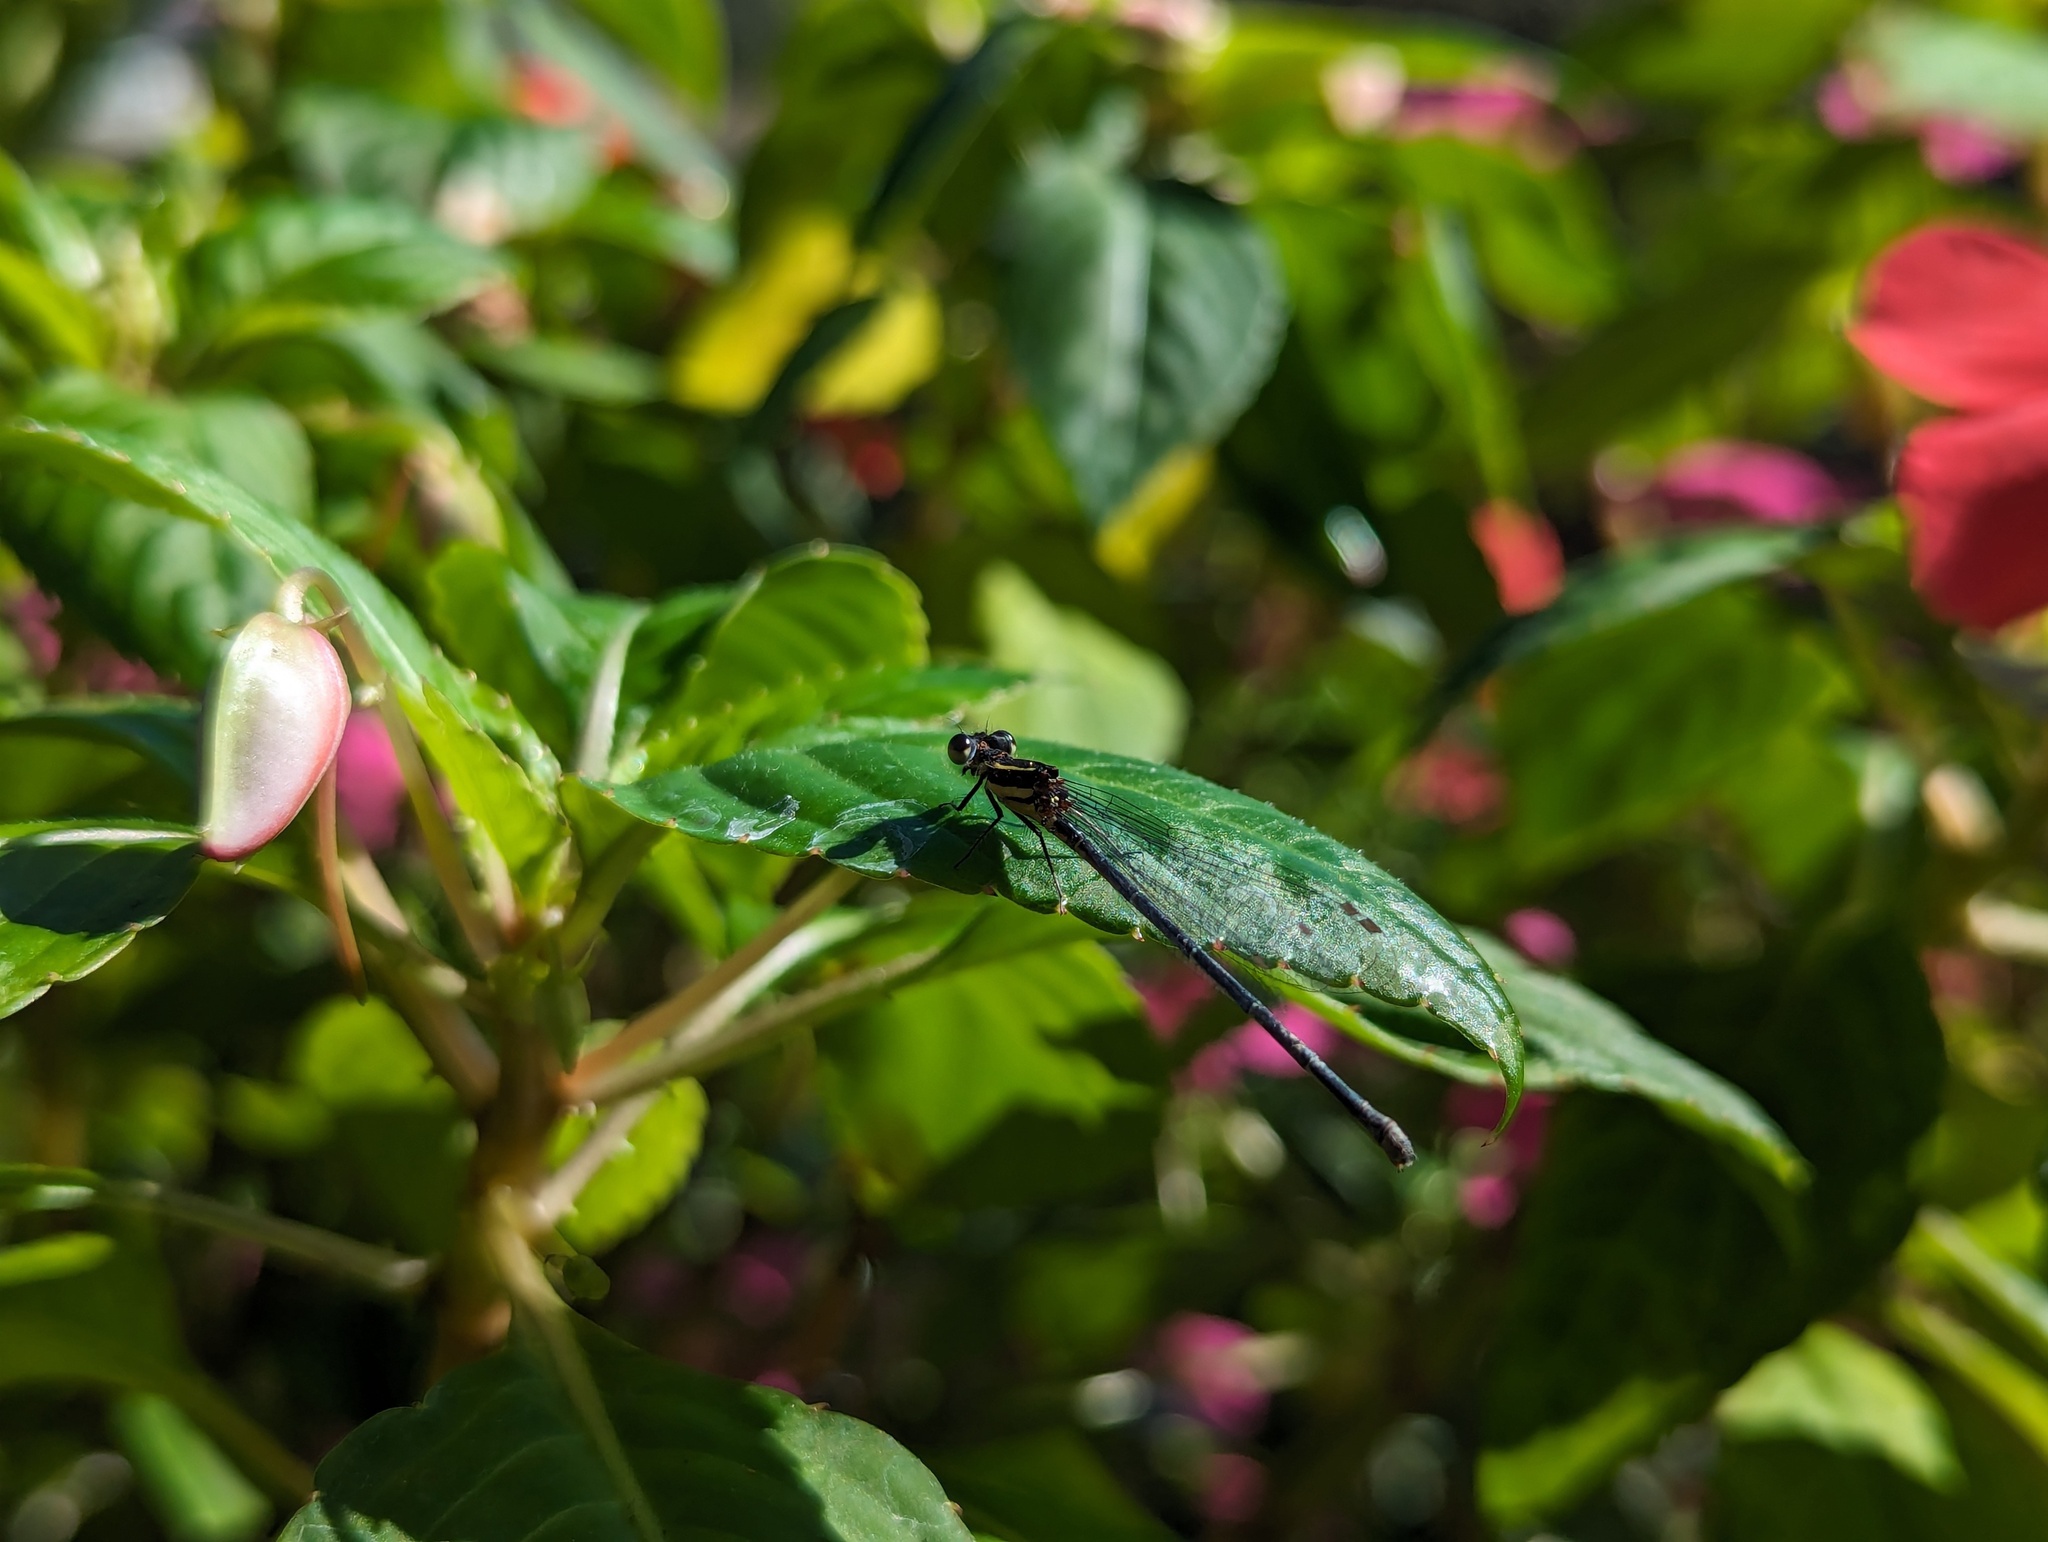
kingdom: Animalia
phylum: Arthropoda
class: Insecta
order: Odonata
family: Platycnemididae
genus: Onychargia
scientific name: Onychargia atrocyana
